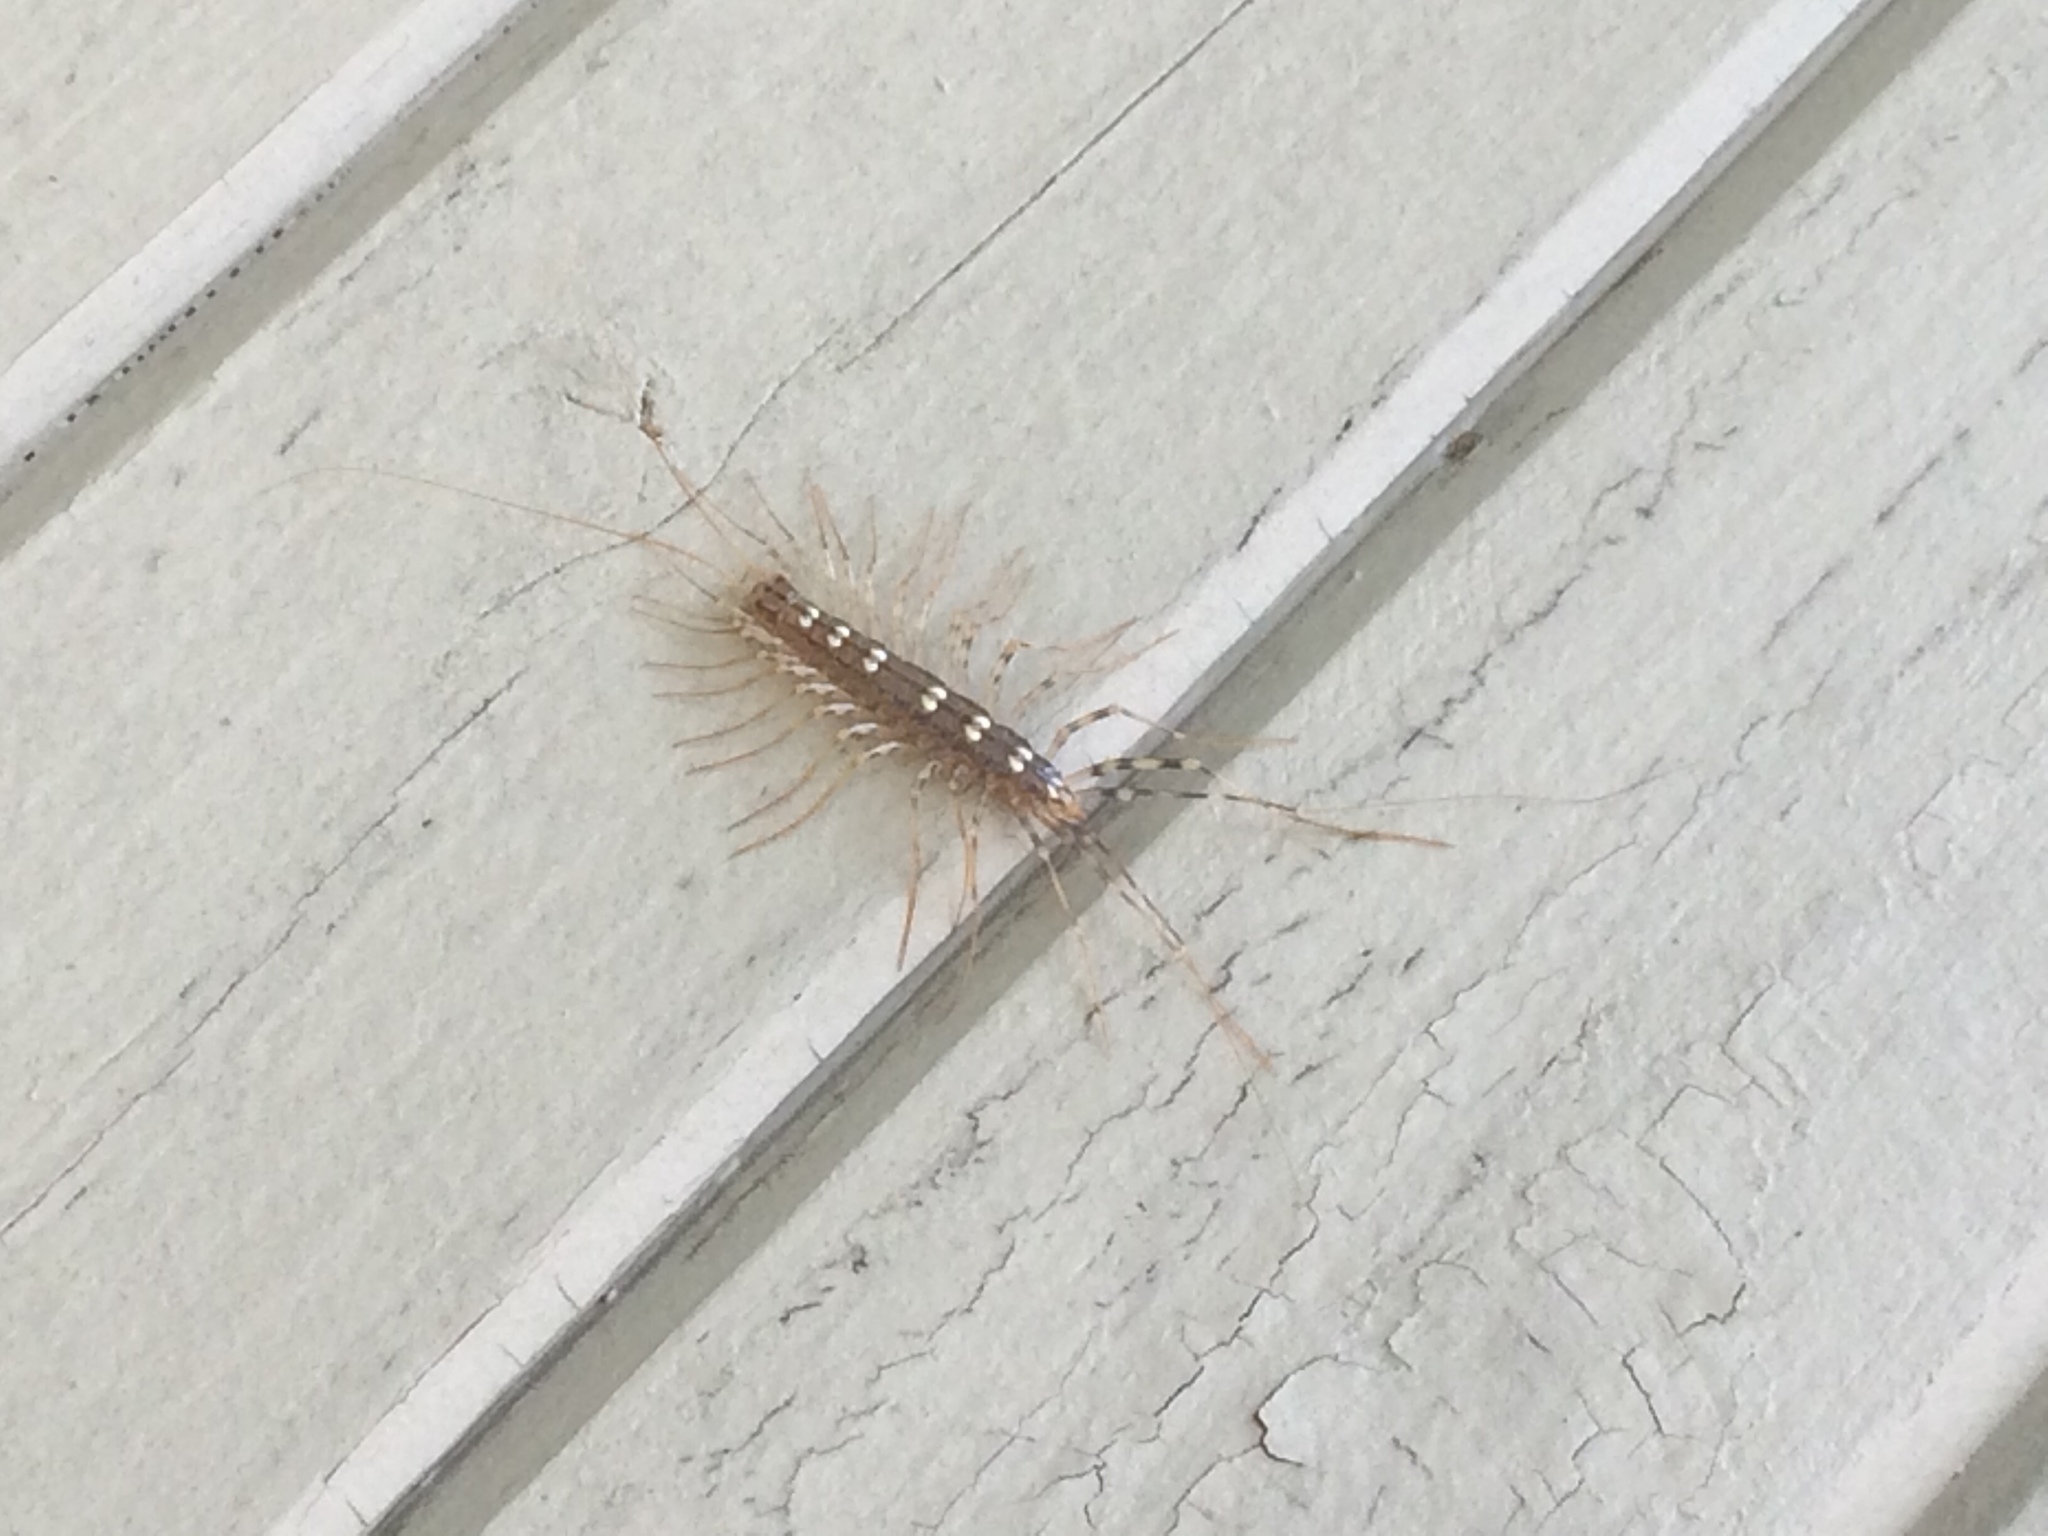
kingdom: Animalia
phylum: Arthropoda
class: Chilopoda
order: Scutigeromorpha
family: Scutigeridae
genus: Scutigera
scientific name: Scutigera coleoptrata
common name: House centipede
